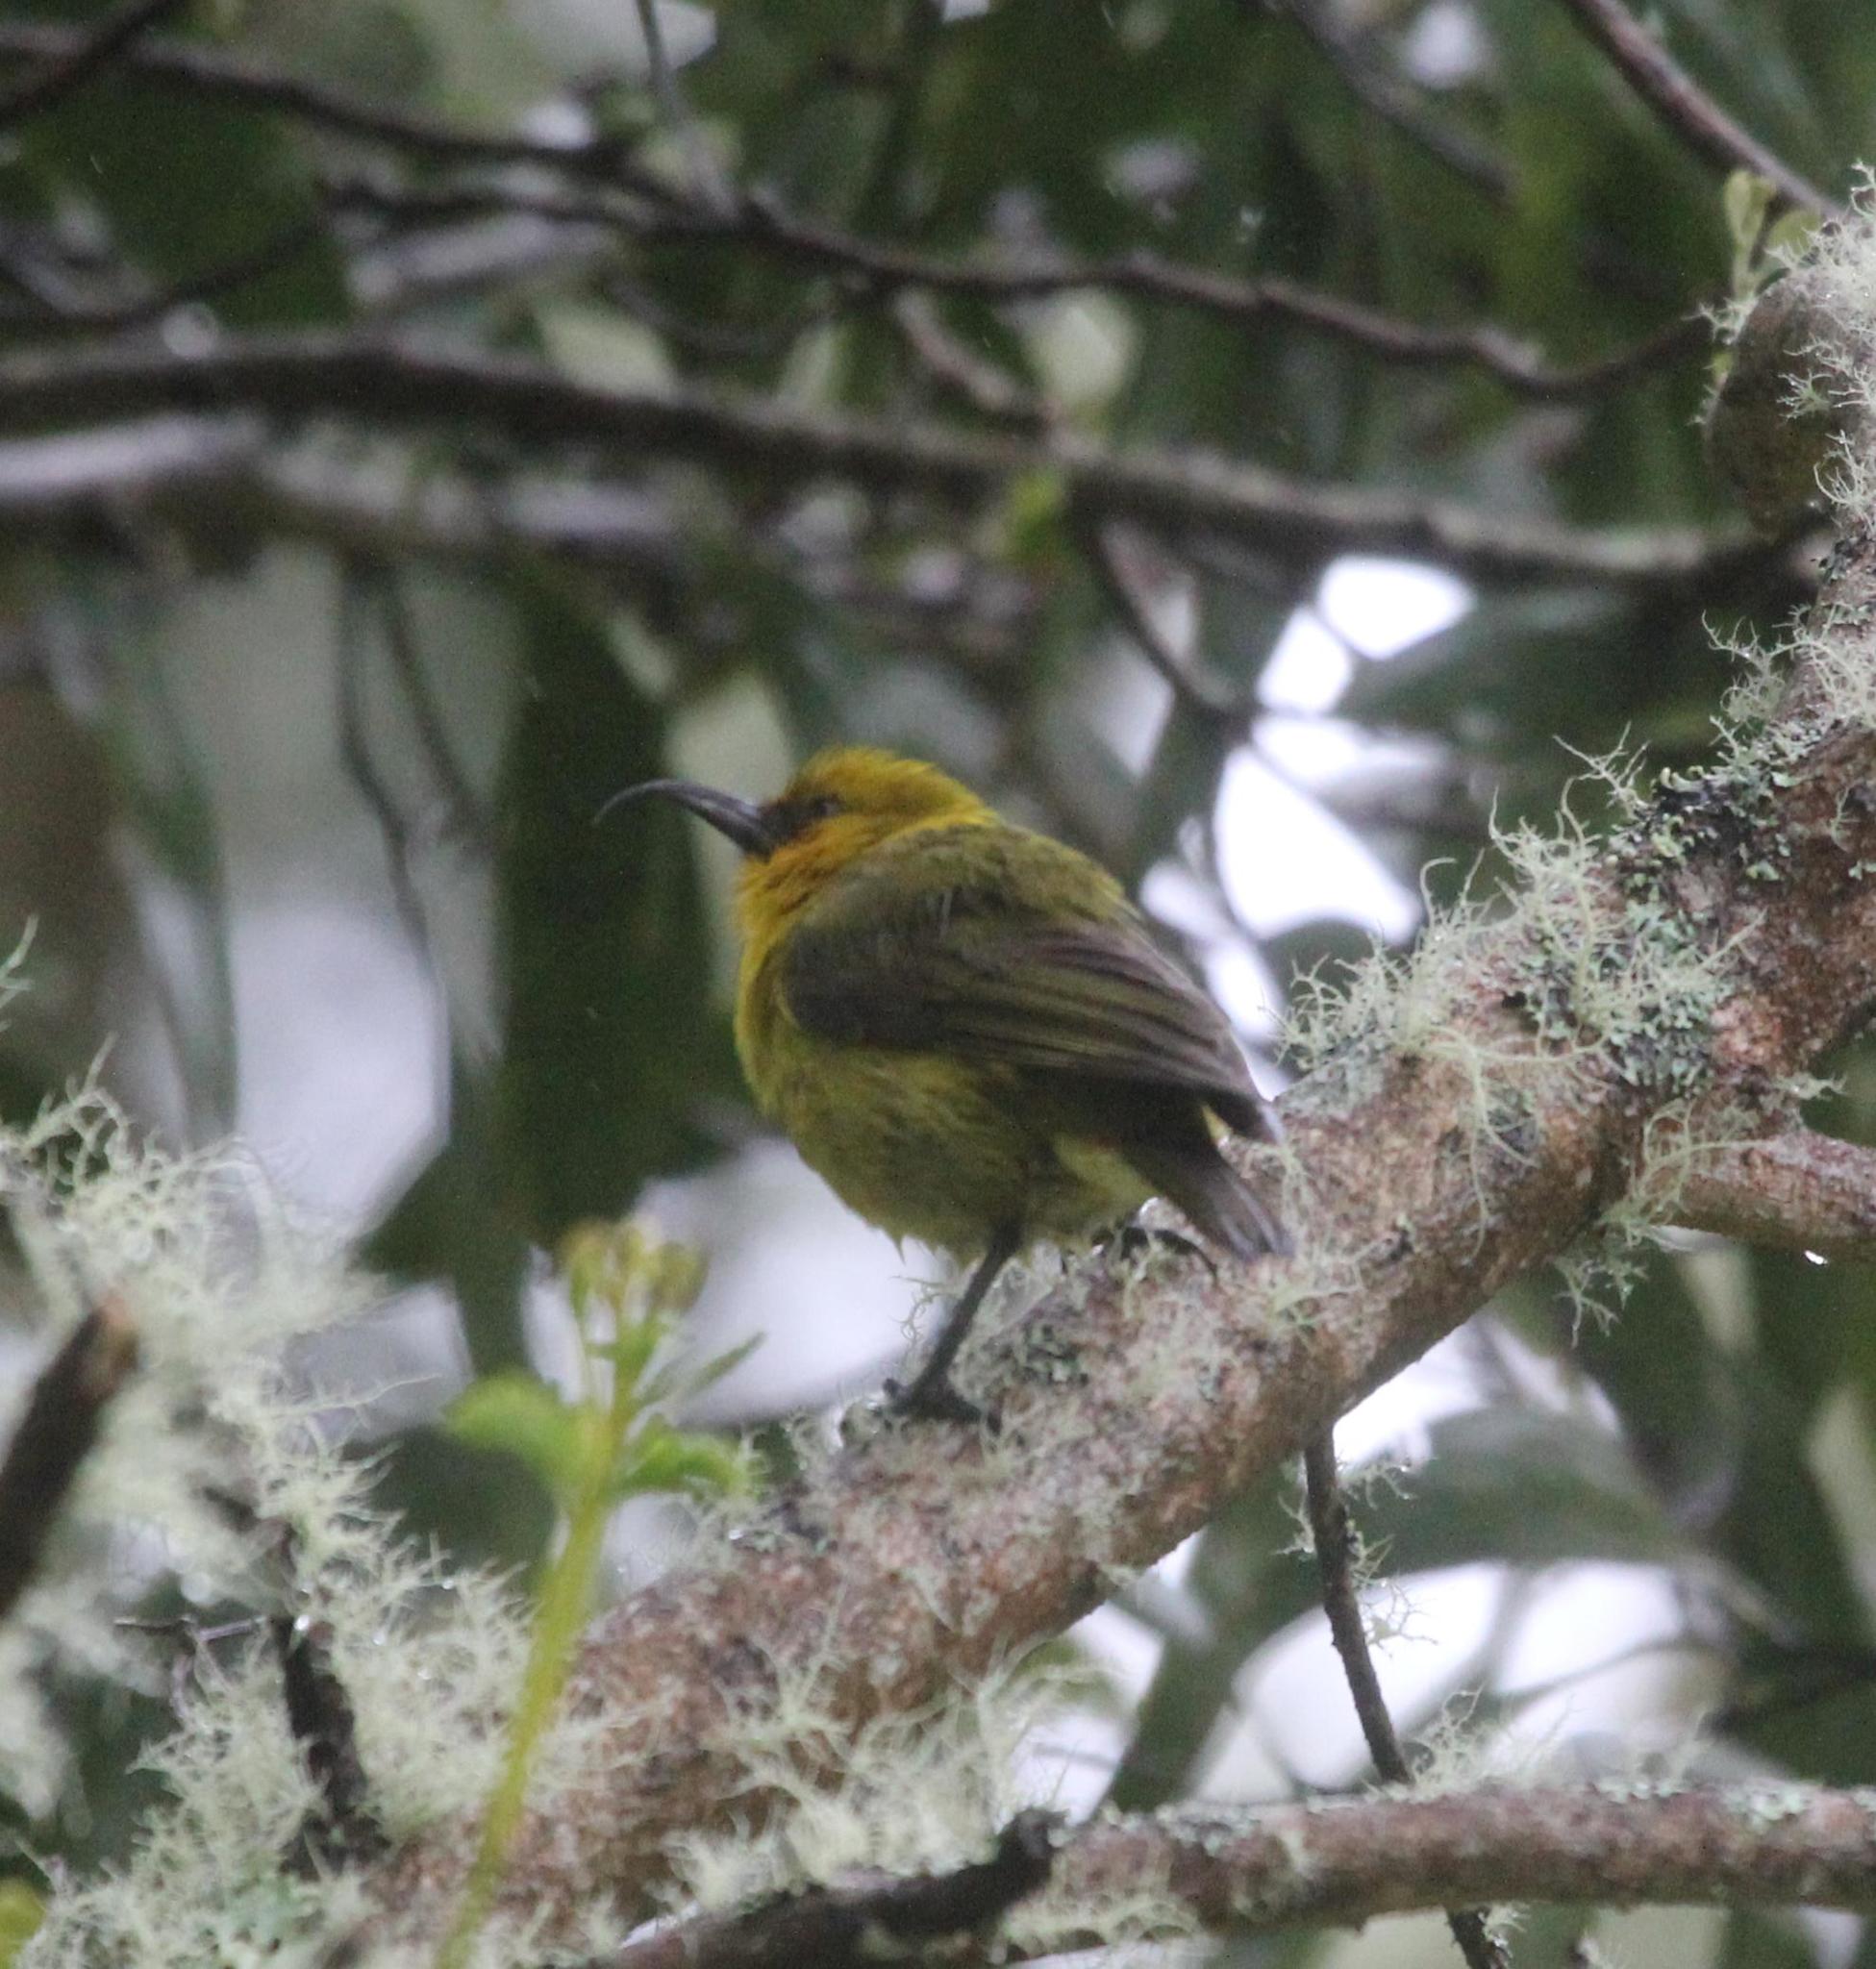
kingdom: Animalia
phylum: Chordata
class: Aves
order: Passeriformes
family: Fringillidae
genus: Hemignathus
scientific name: Hemignathus wilsoni
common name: Akiapolaau
